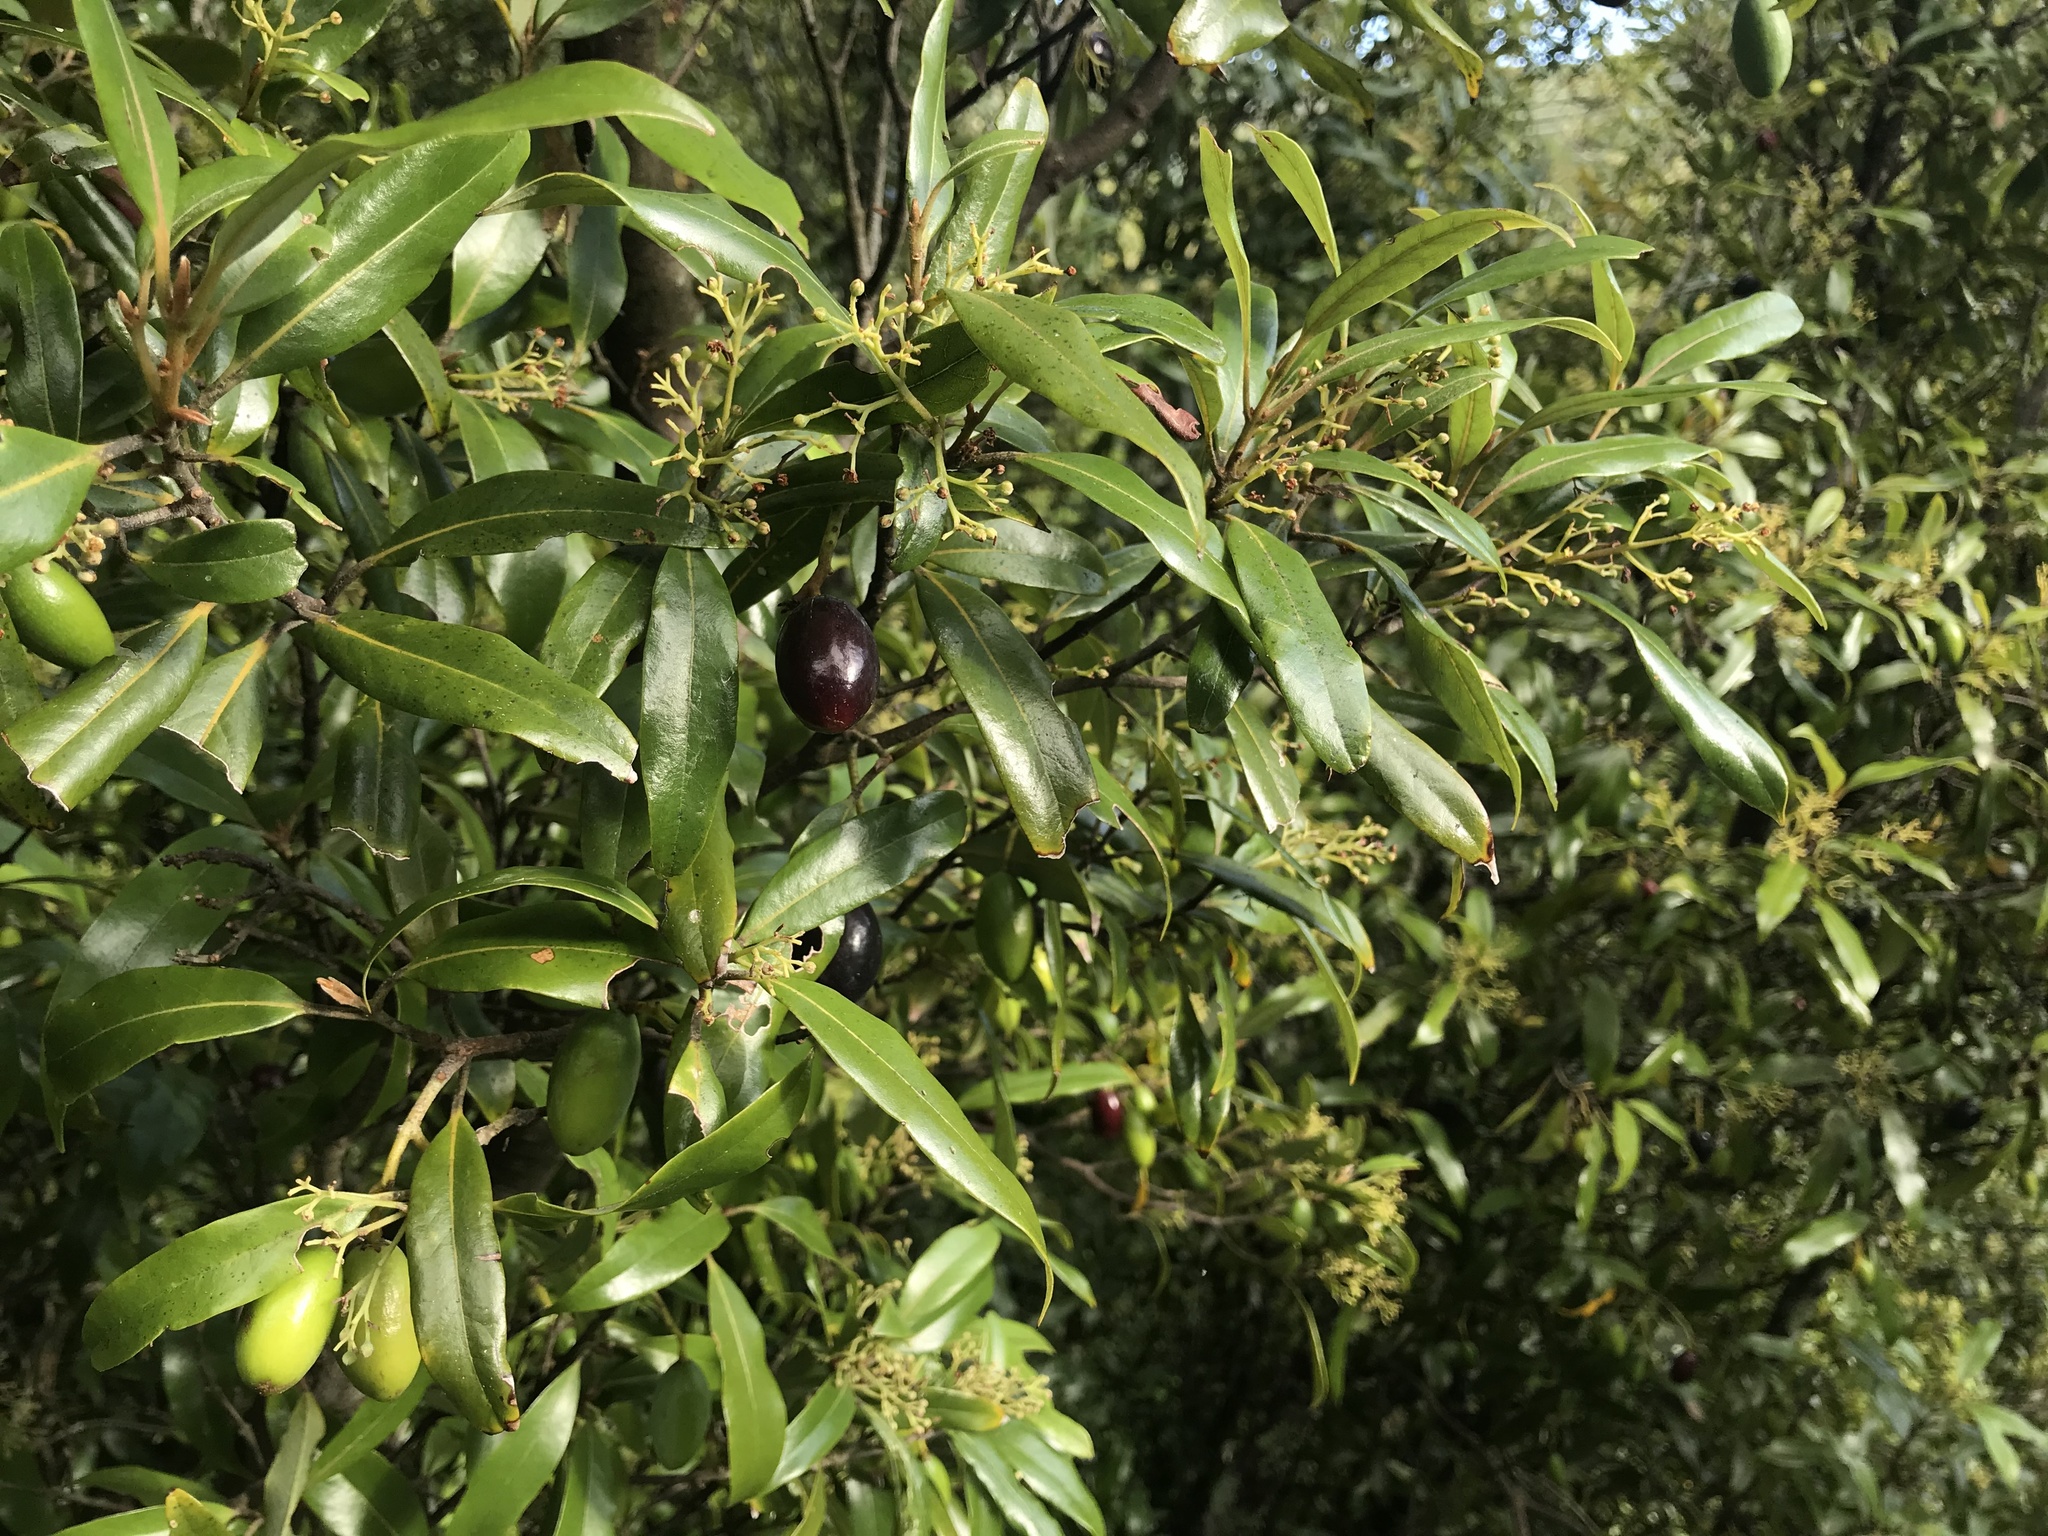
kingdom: Plantae
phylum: Tracheophyta
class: Magnoliopsida
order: Laurales
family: Lauraceae
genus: Beilschmiedia
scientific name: Beilschmiedia tawa
